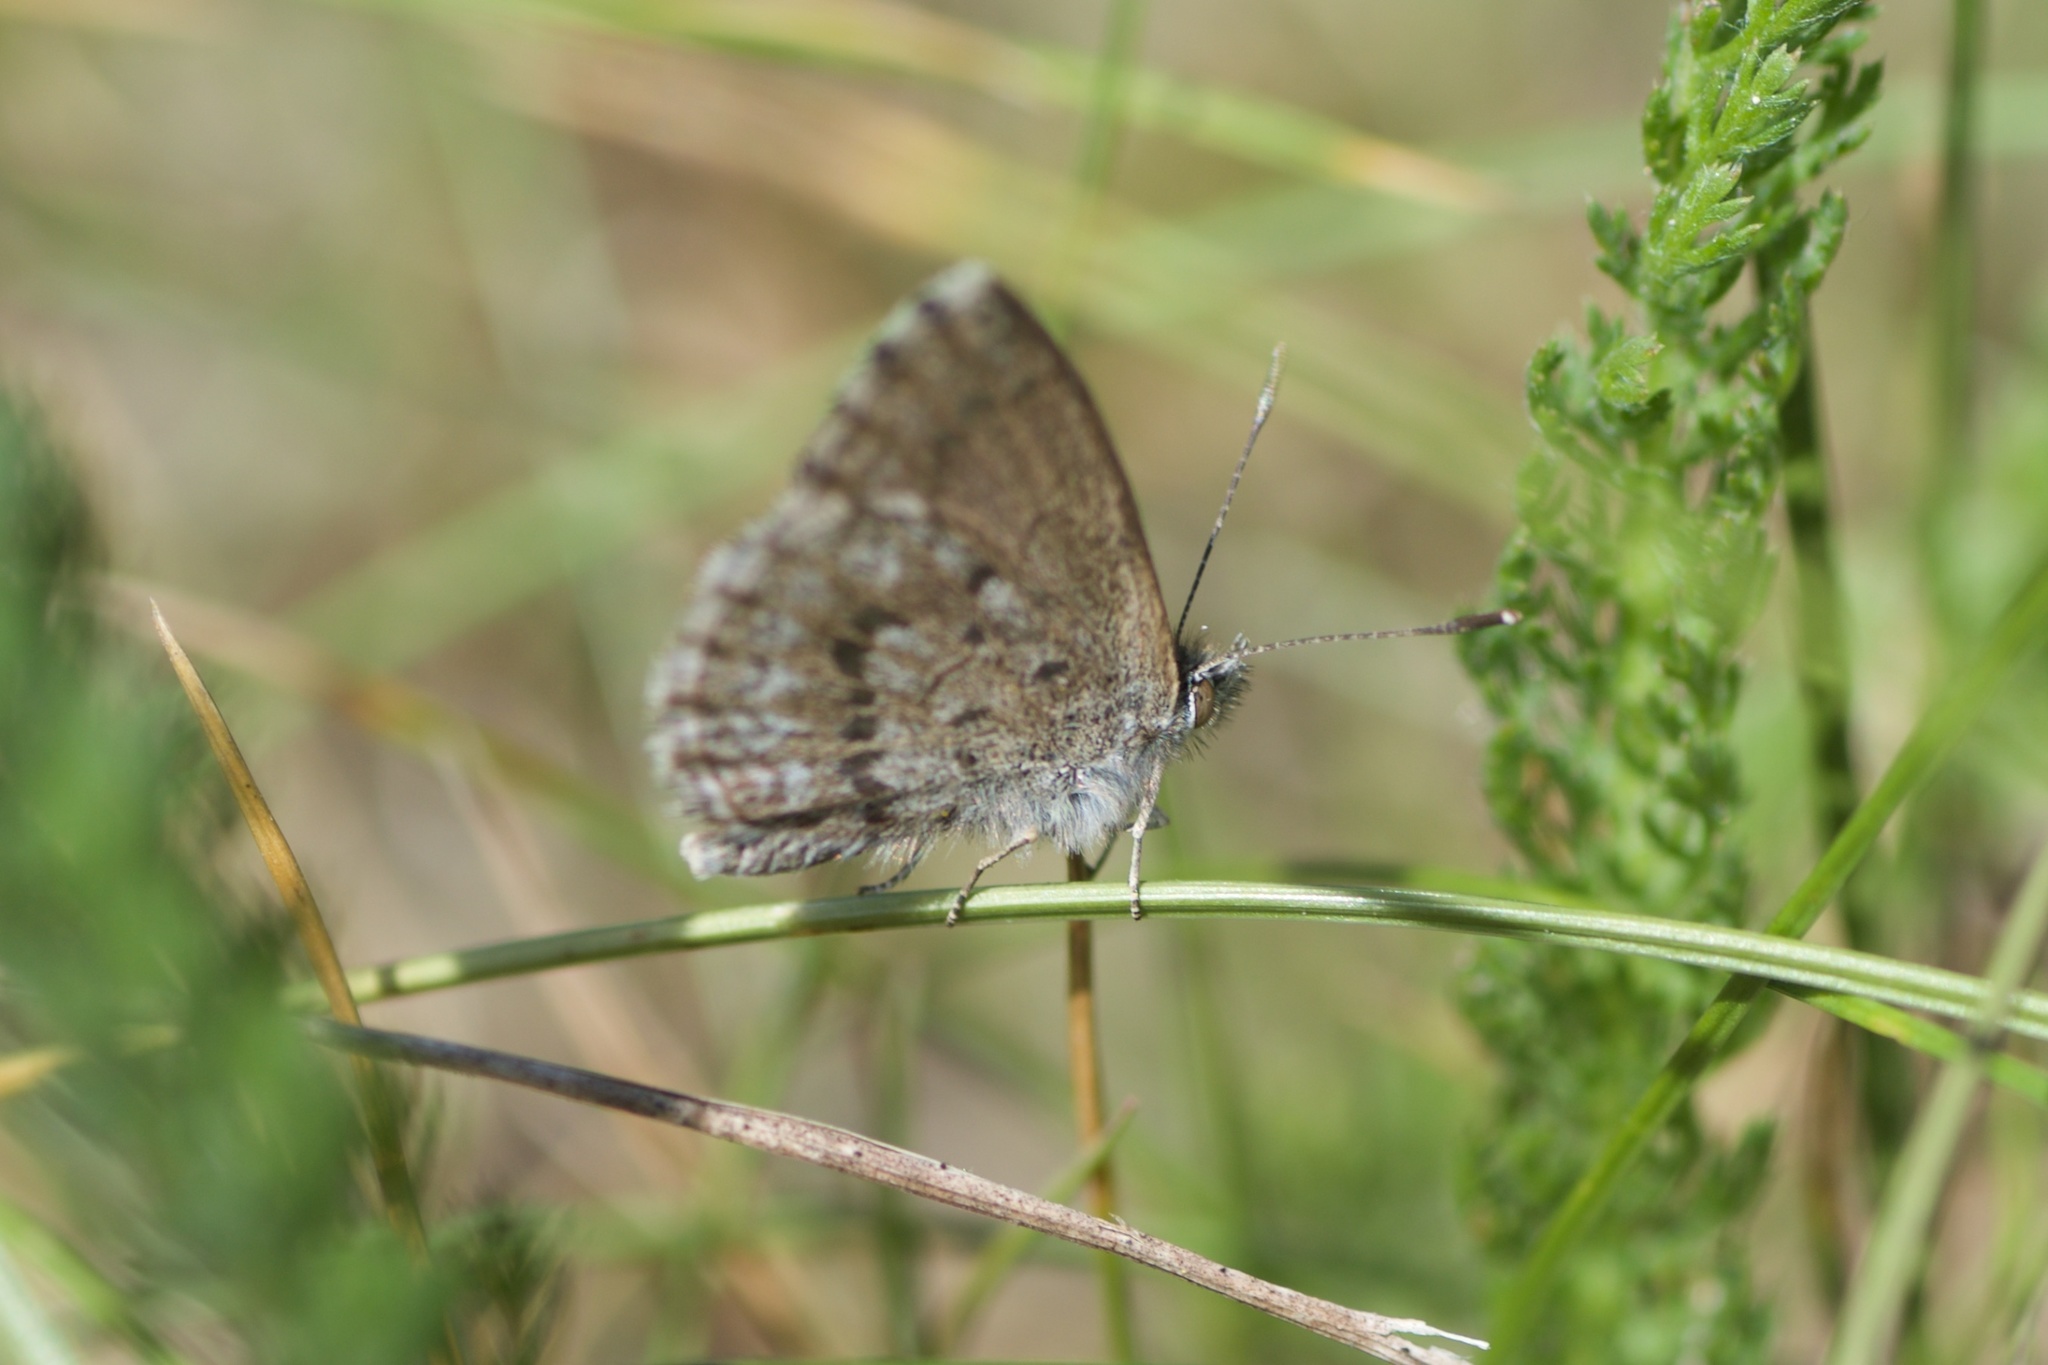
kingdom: Animalia
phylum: Arthropoda
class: Insecta
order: Lepidoptera
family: Lycaenidae
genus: Zizina
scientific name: Zizina oxleyi
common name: Southern blue
